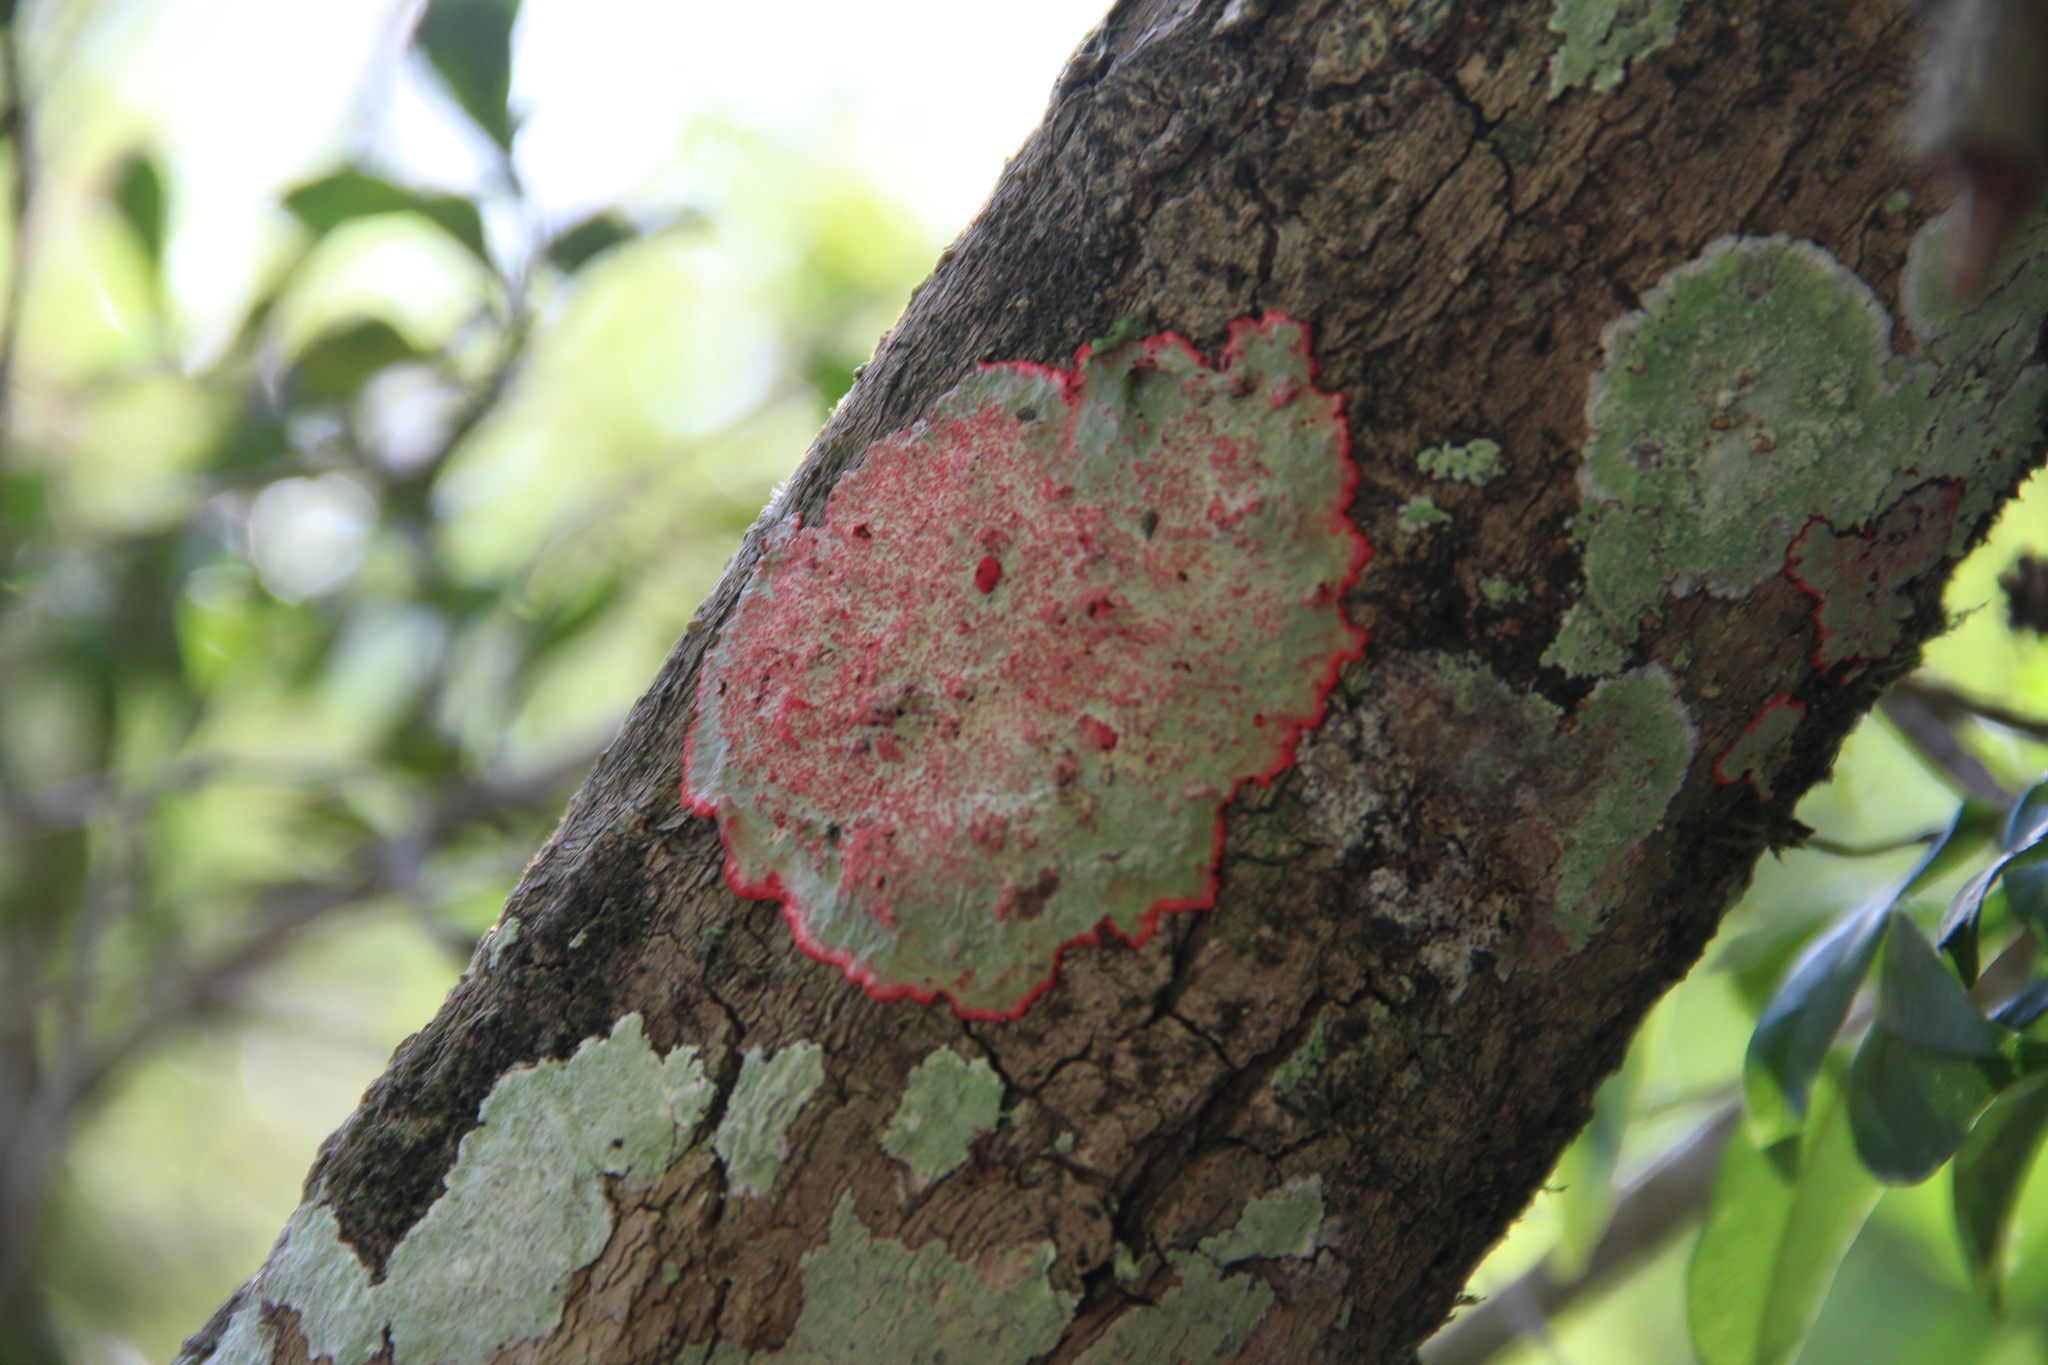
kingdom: Fungi
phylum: Ascomycota
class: Arthoniomycetes
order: Arthoniales
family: Arthoniaceae
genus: Herpothallon
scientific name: Herpothallon rubrocinctum
